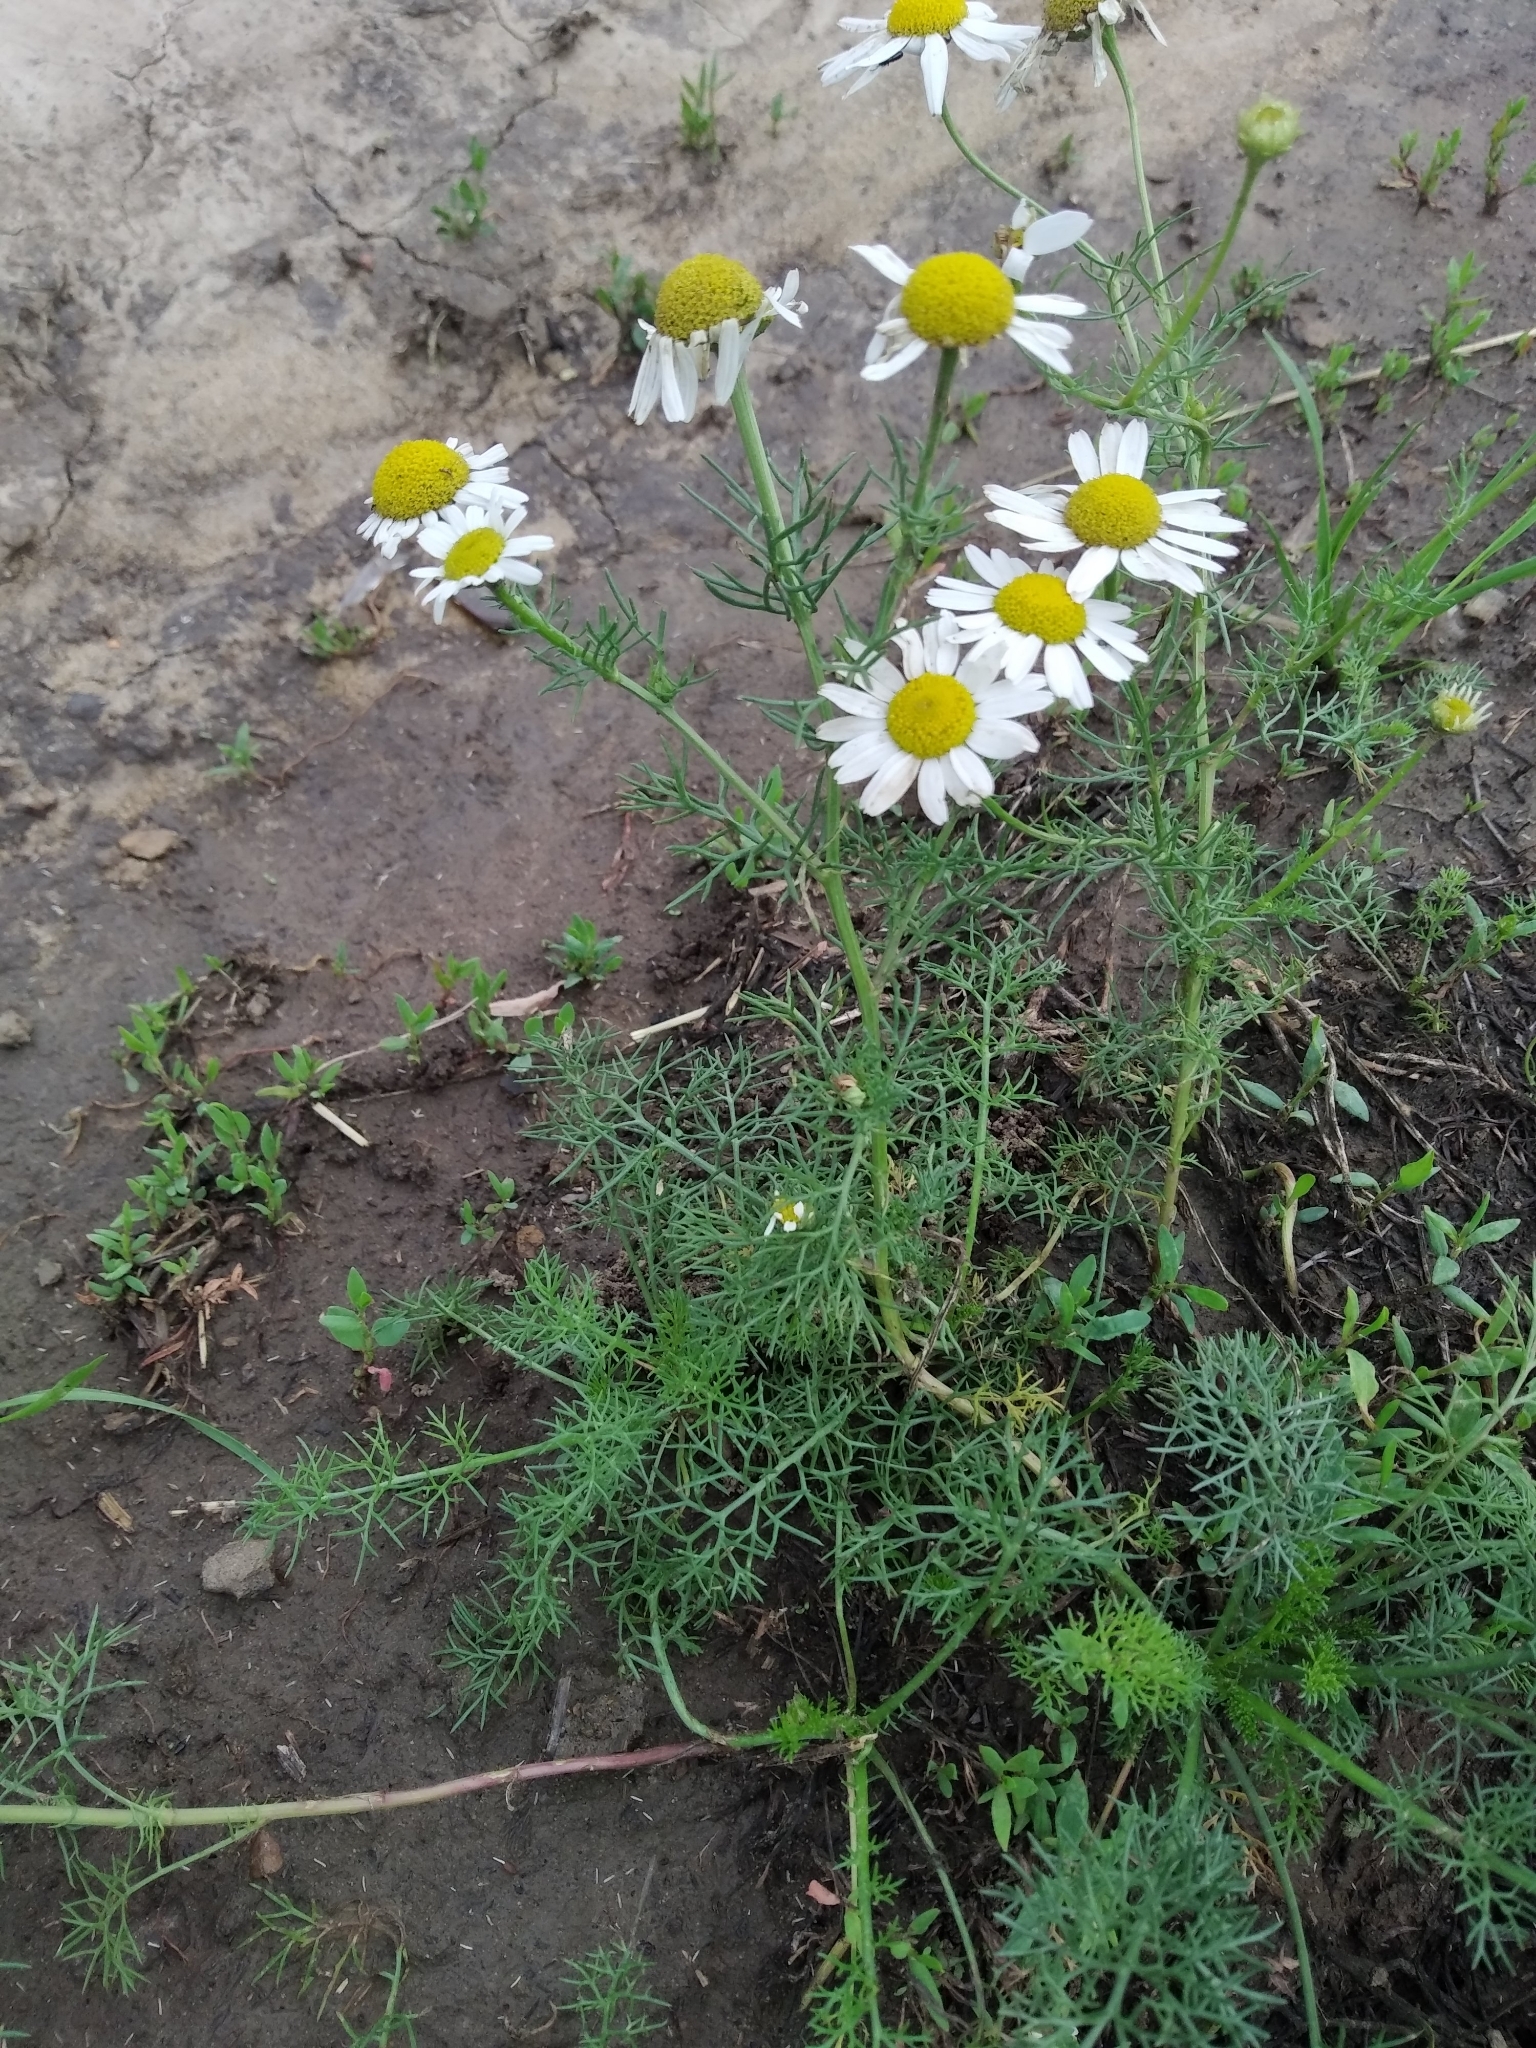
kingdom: Plantae
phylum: Tracheophyta
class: Magnoliopsida
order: Asterales
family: Asteraceae
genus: Tripleurospermum
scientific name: Tripleurospermum inodorum
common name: Scentless mayweed
